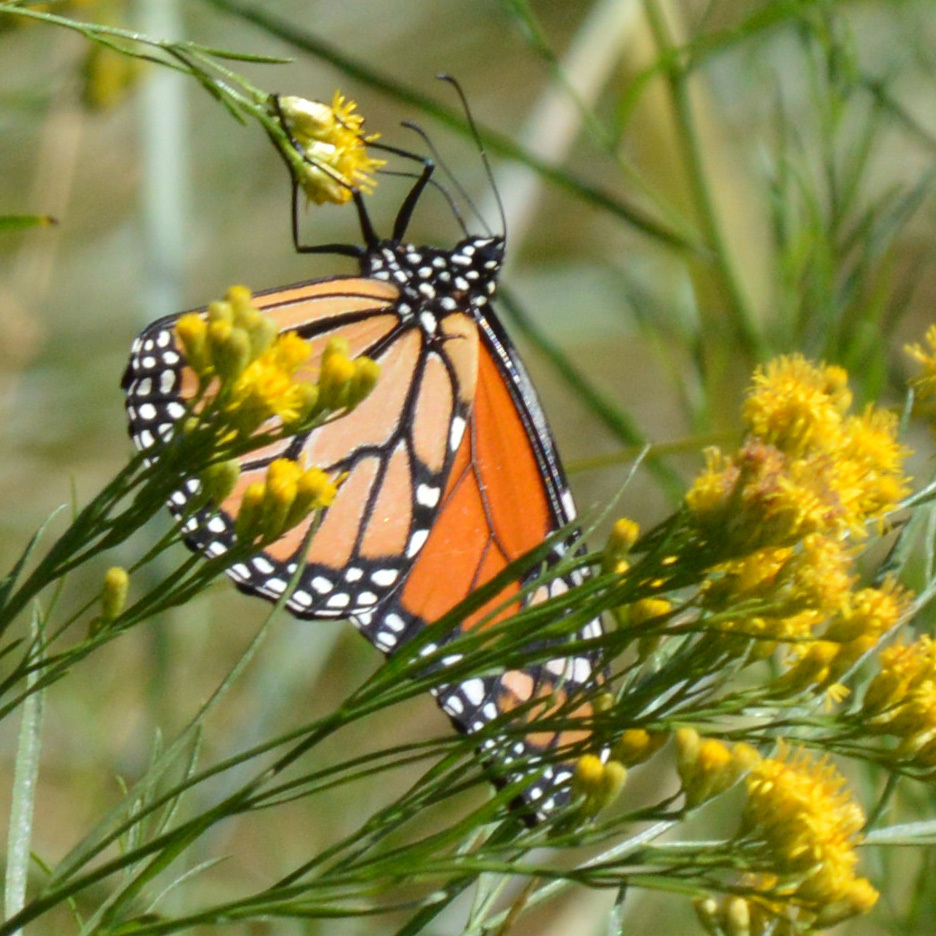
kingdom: Animalia
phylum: Arthropoda
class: Insecta
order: Lepidoptera
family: Nymphalidae
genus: Danaus
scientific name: Danaus plexippus
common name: Monarch
